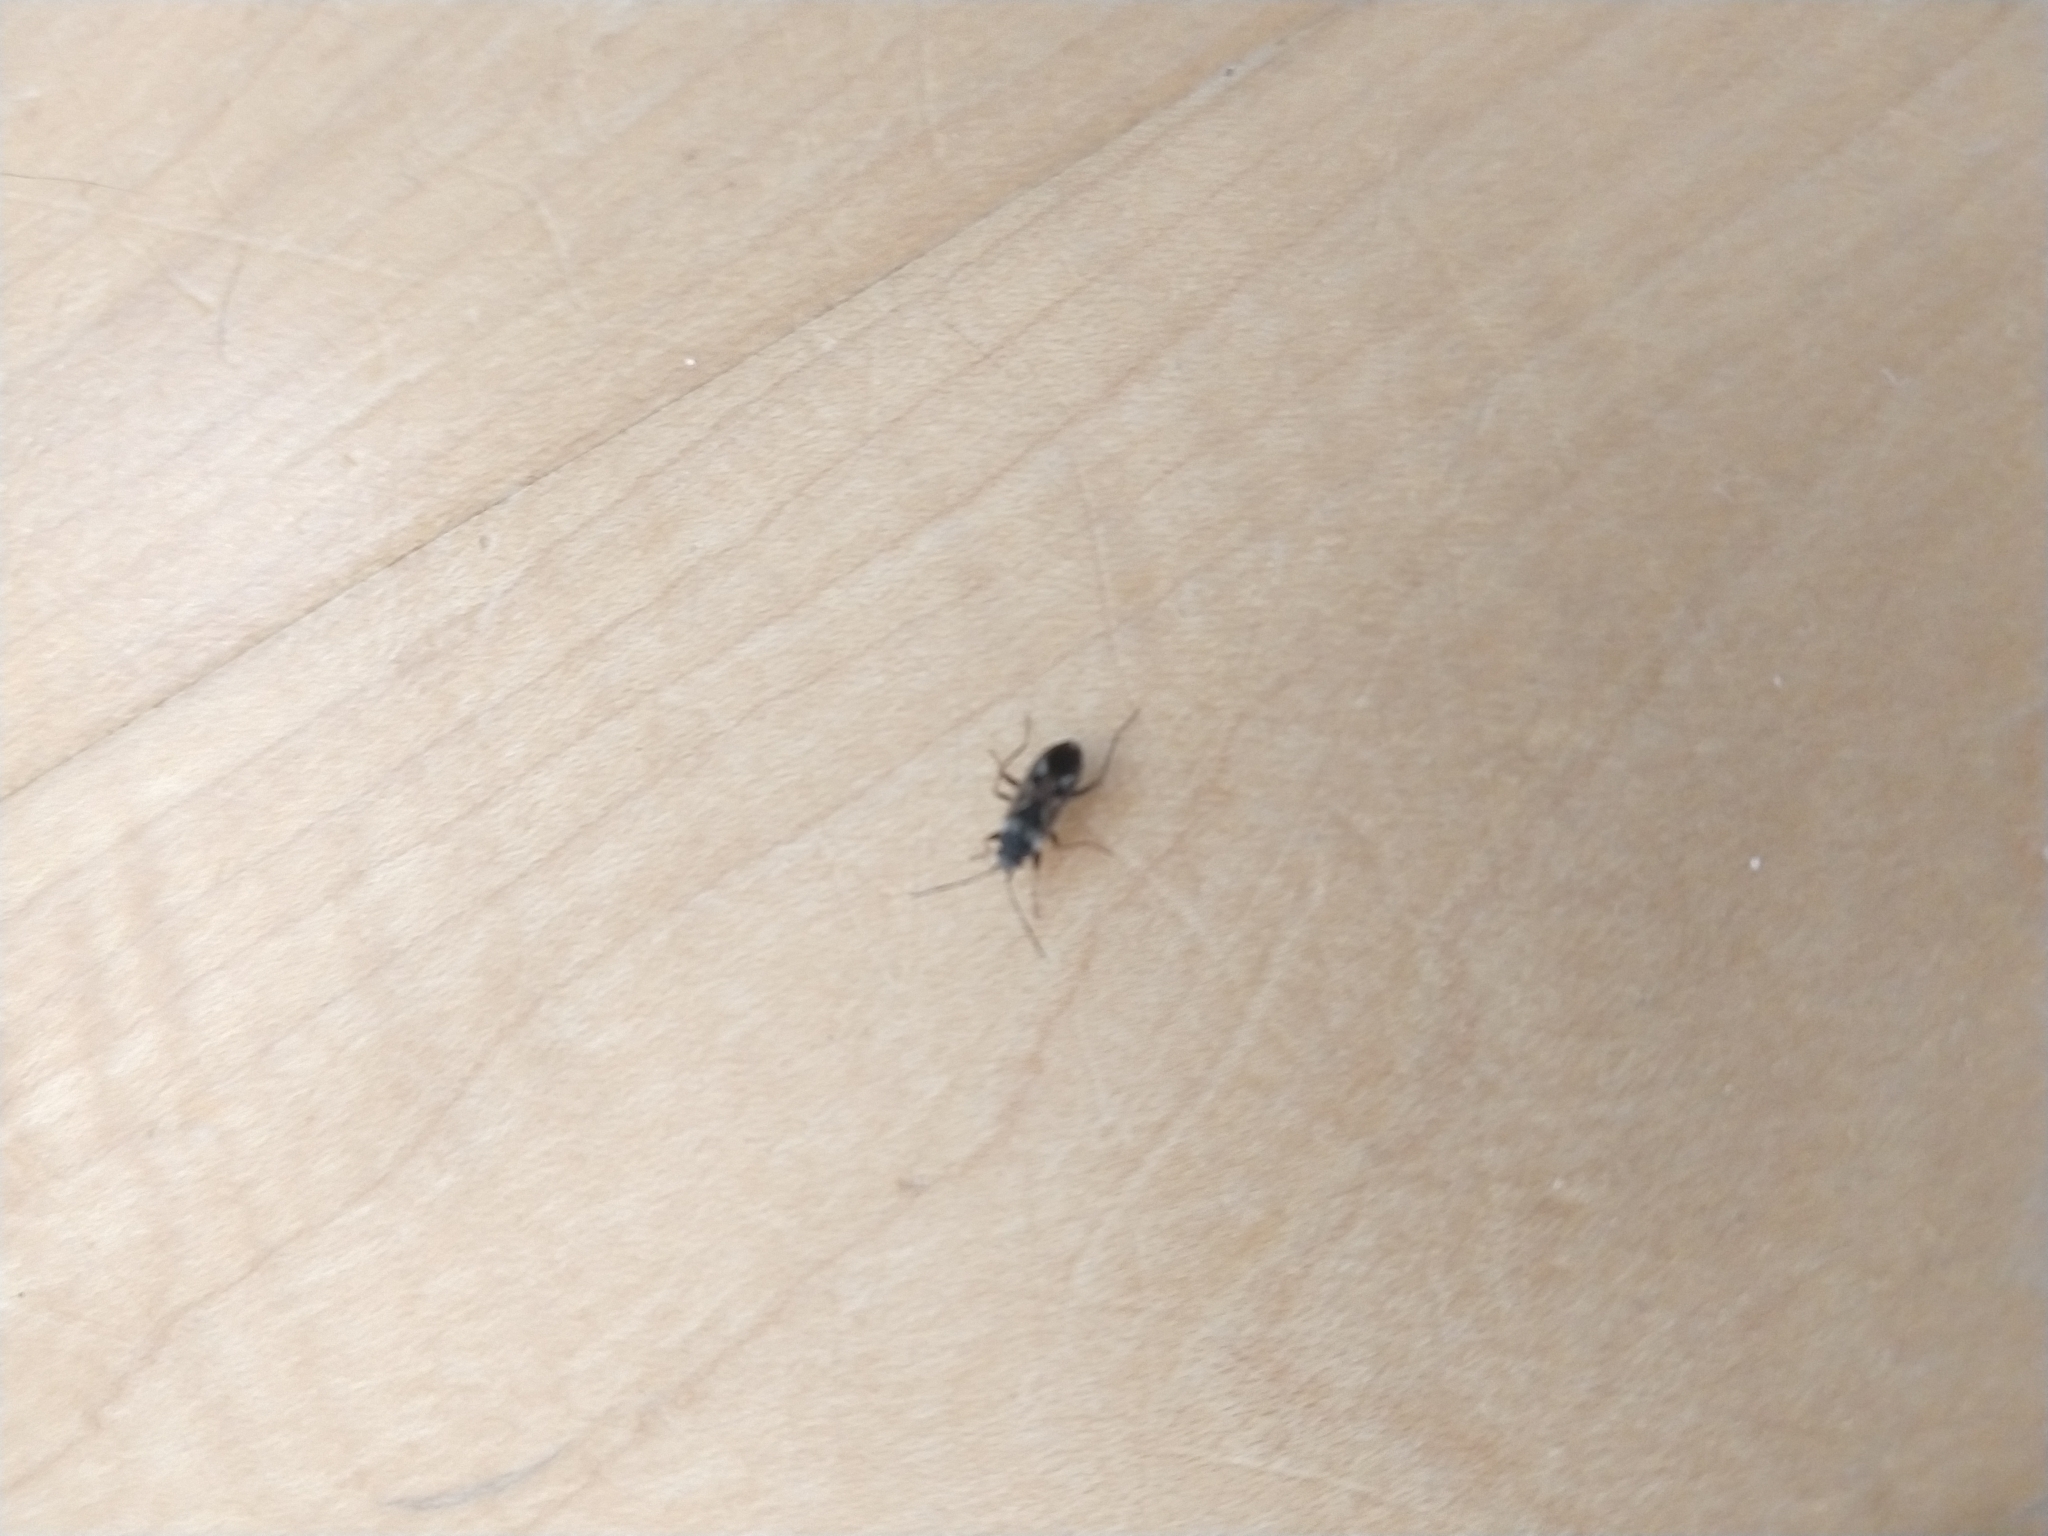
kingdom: Animalia
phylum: Arthropoda
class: Insecta
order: Hemiptera
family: Rhyparochromidae
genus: Rhyparochromus
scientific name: Rhyparochromus vulgaris
